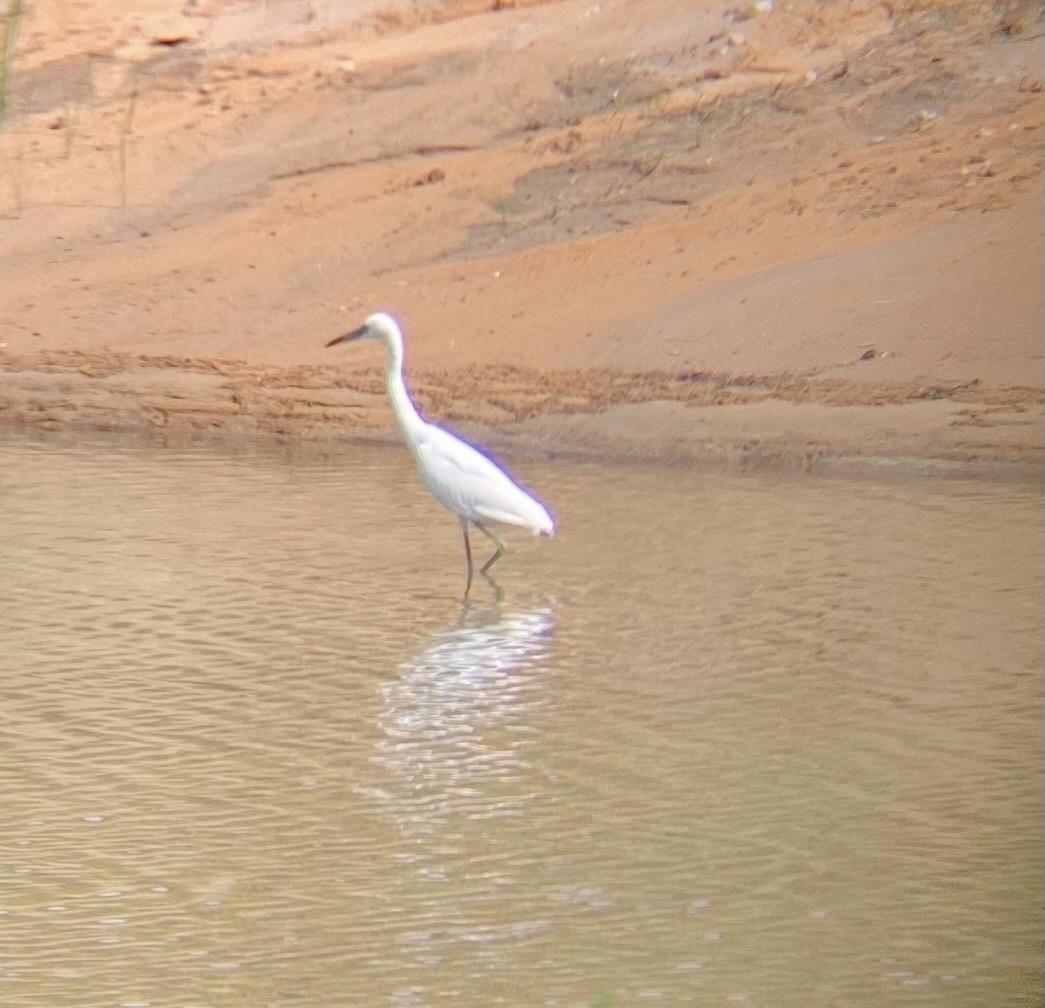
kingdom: Animalia
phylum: Chordata
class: Aves
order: Pelecaniformes
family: Ardeidae
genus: Egretta
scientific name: Egretta caerulea
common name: Little blue heron
